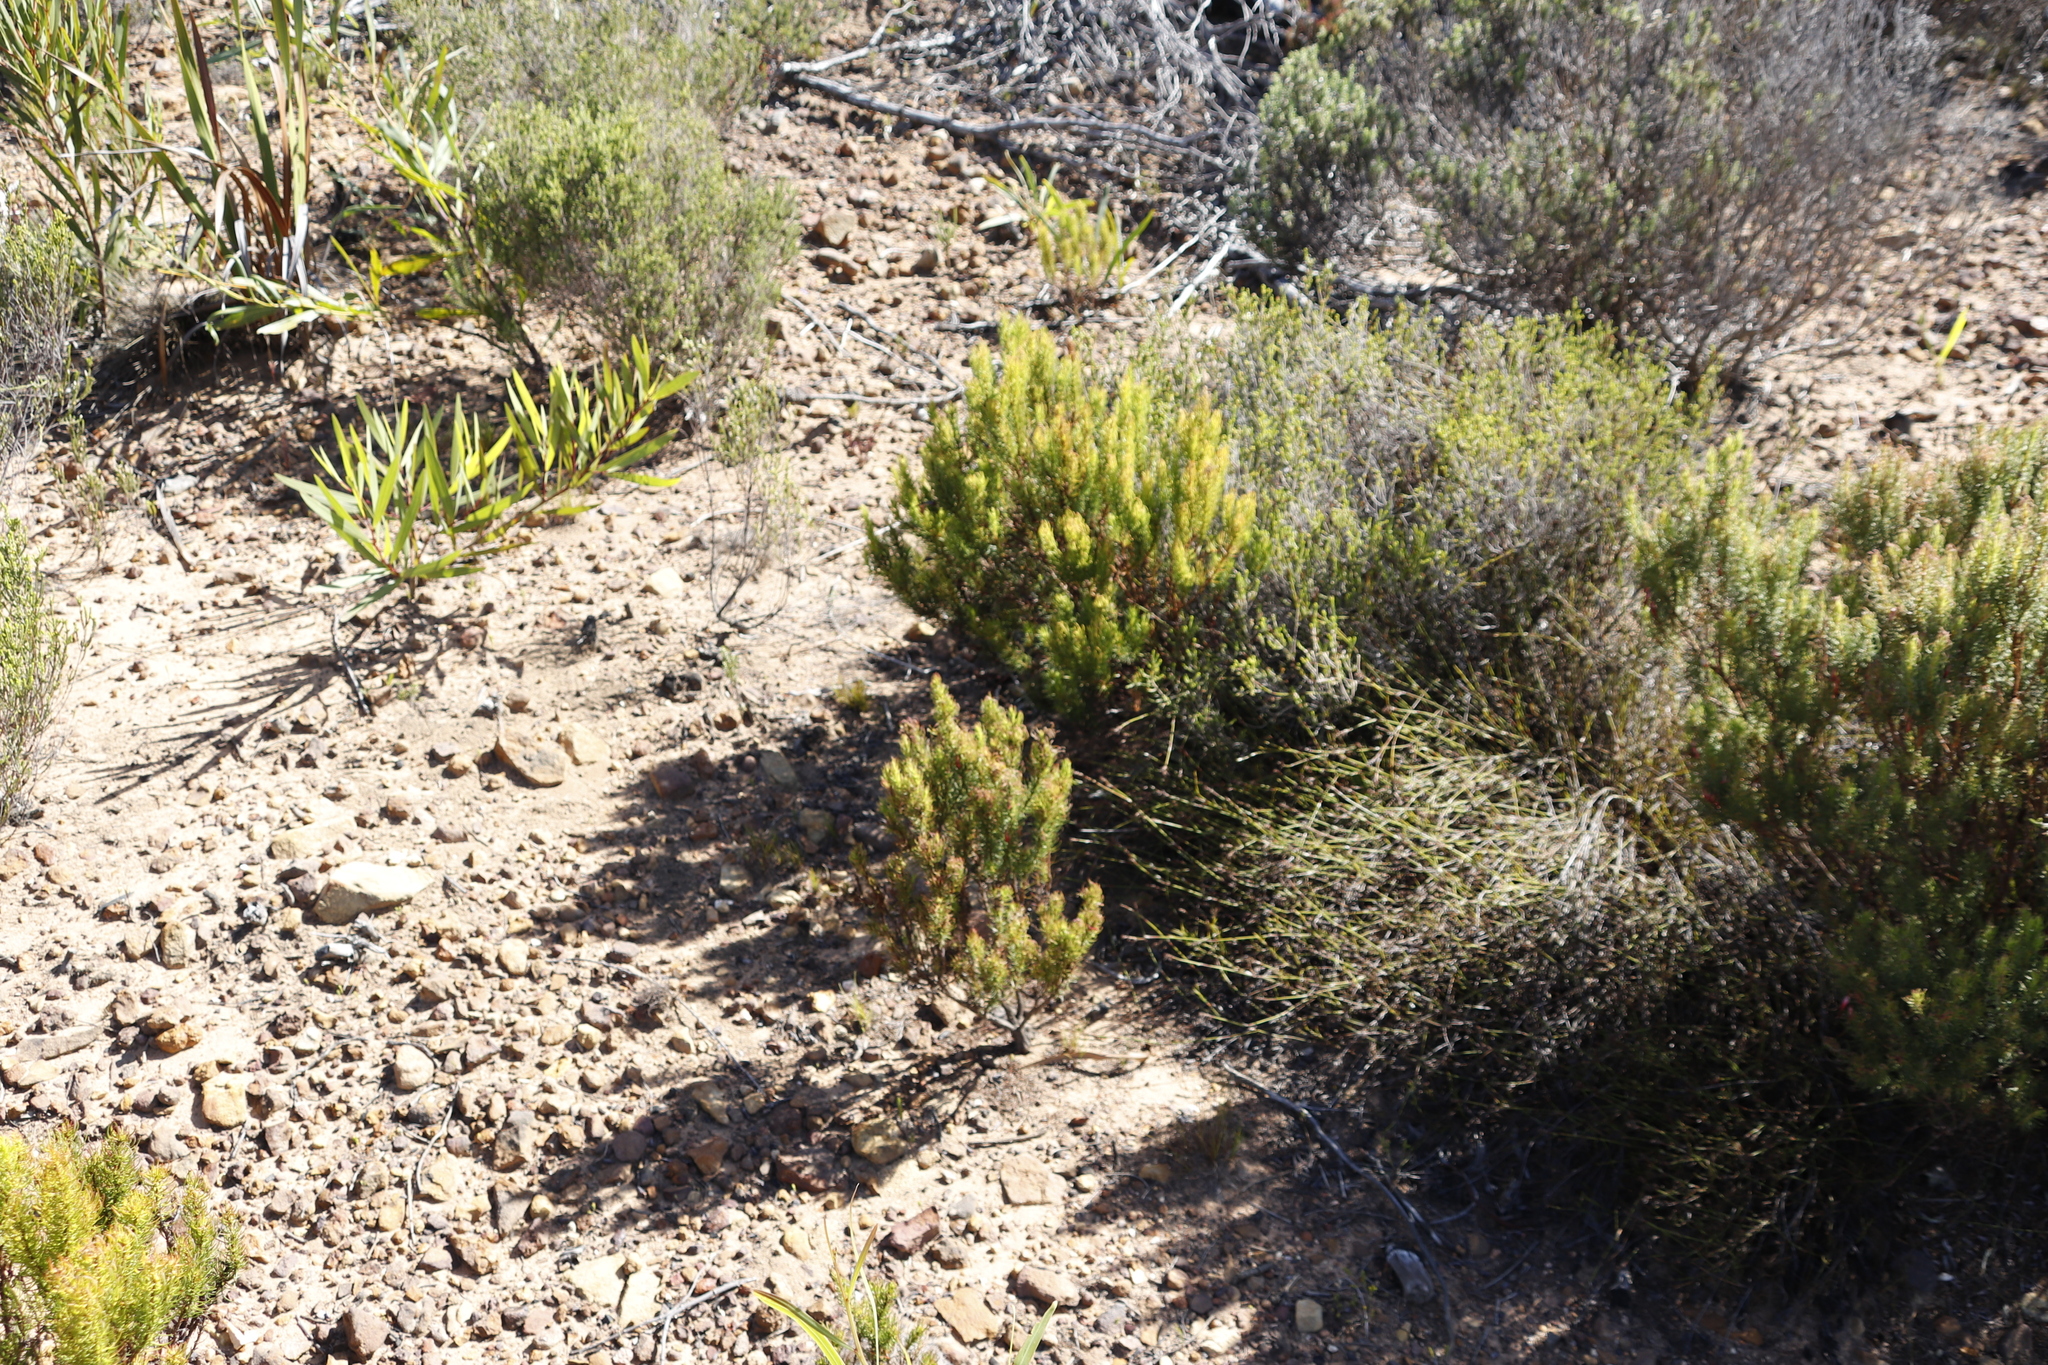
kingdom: Plantae
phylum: Tracheophyta
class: Magnoliopsida
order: Ericales
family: Ericaceae
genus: Erica
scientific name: Erica plukenetii
